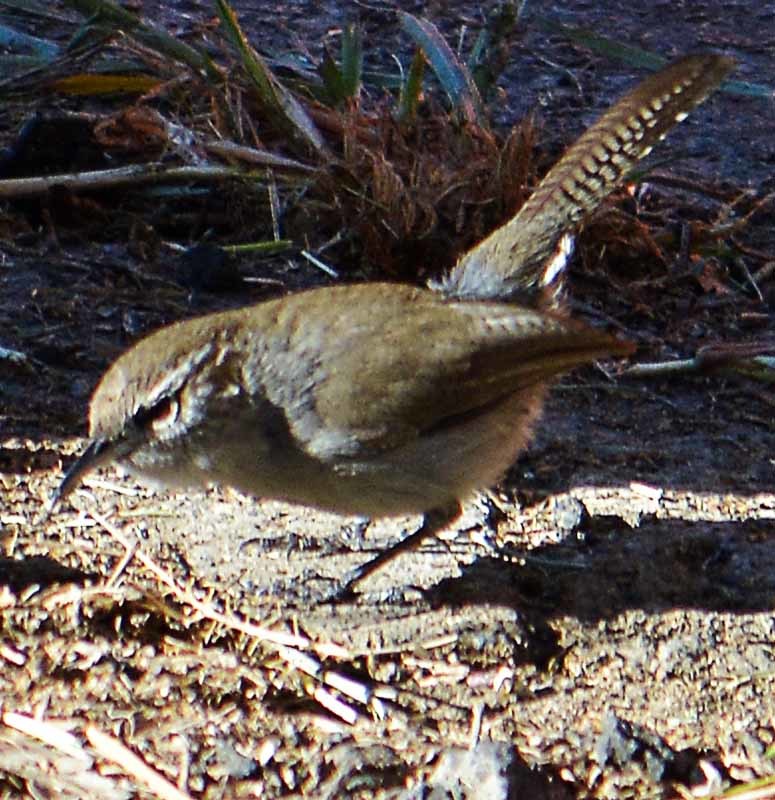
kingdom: Animalia
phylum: Chordata
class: Aves
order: Passeriformes
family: Troglodytidae
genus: Thryomanes
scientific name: Thryomanes bewickii
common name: Bewick's wren
